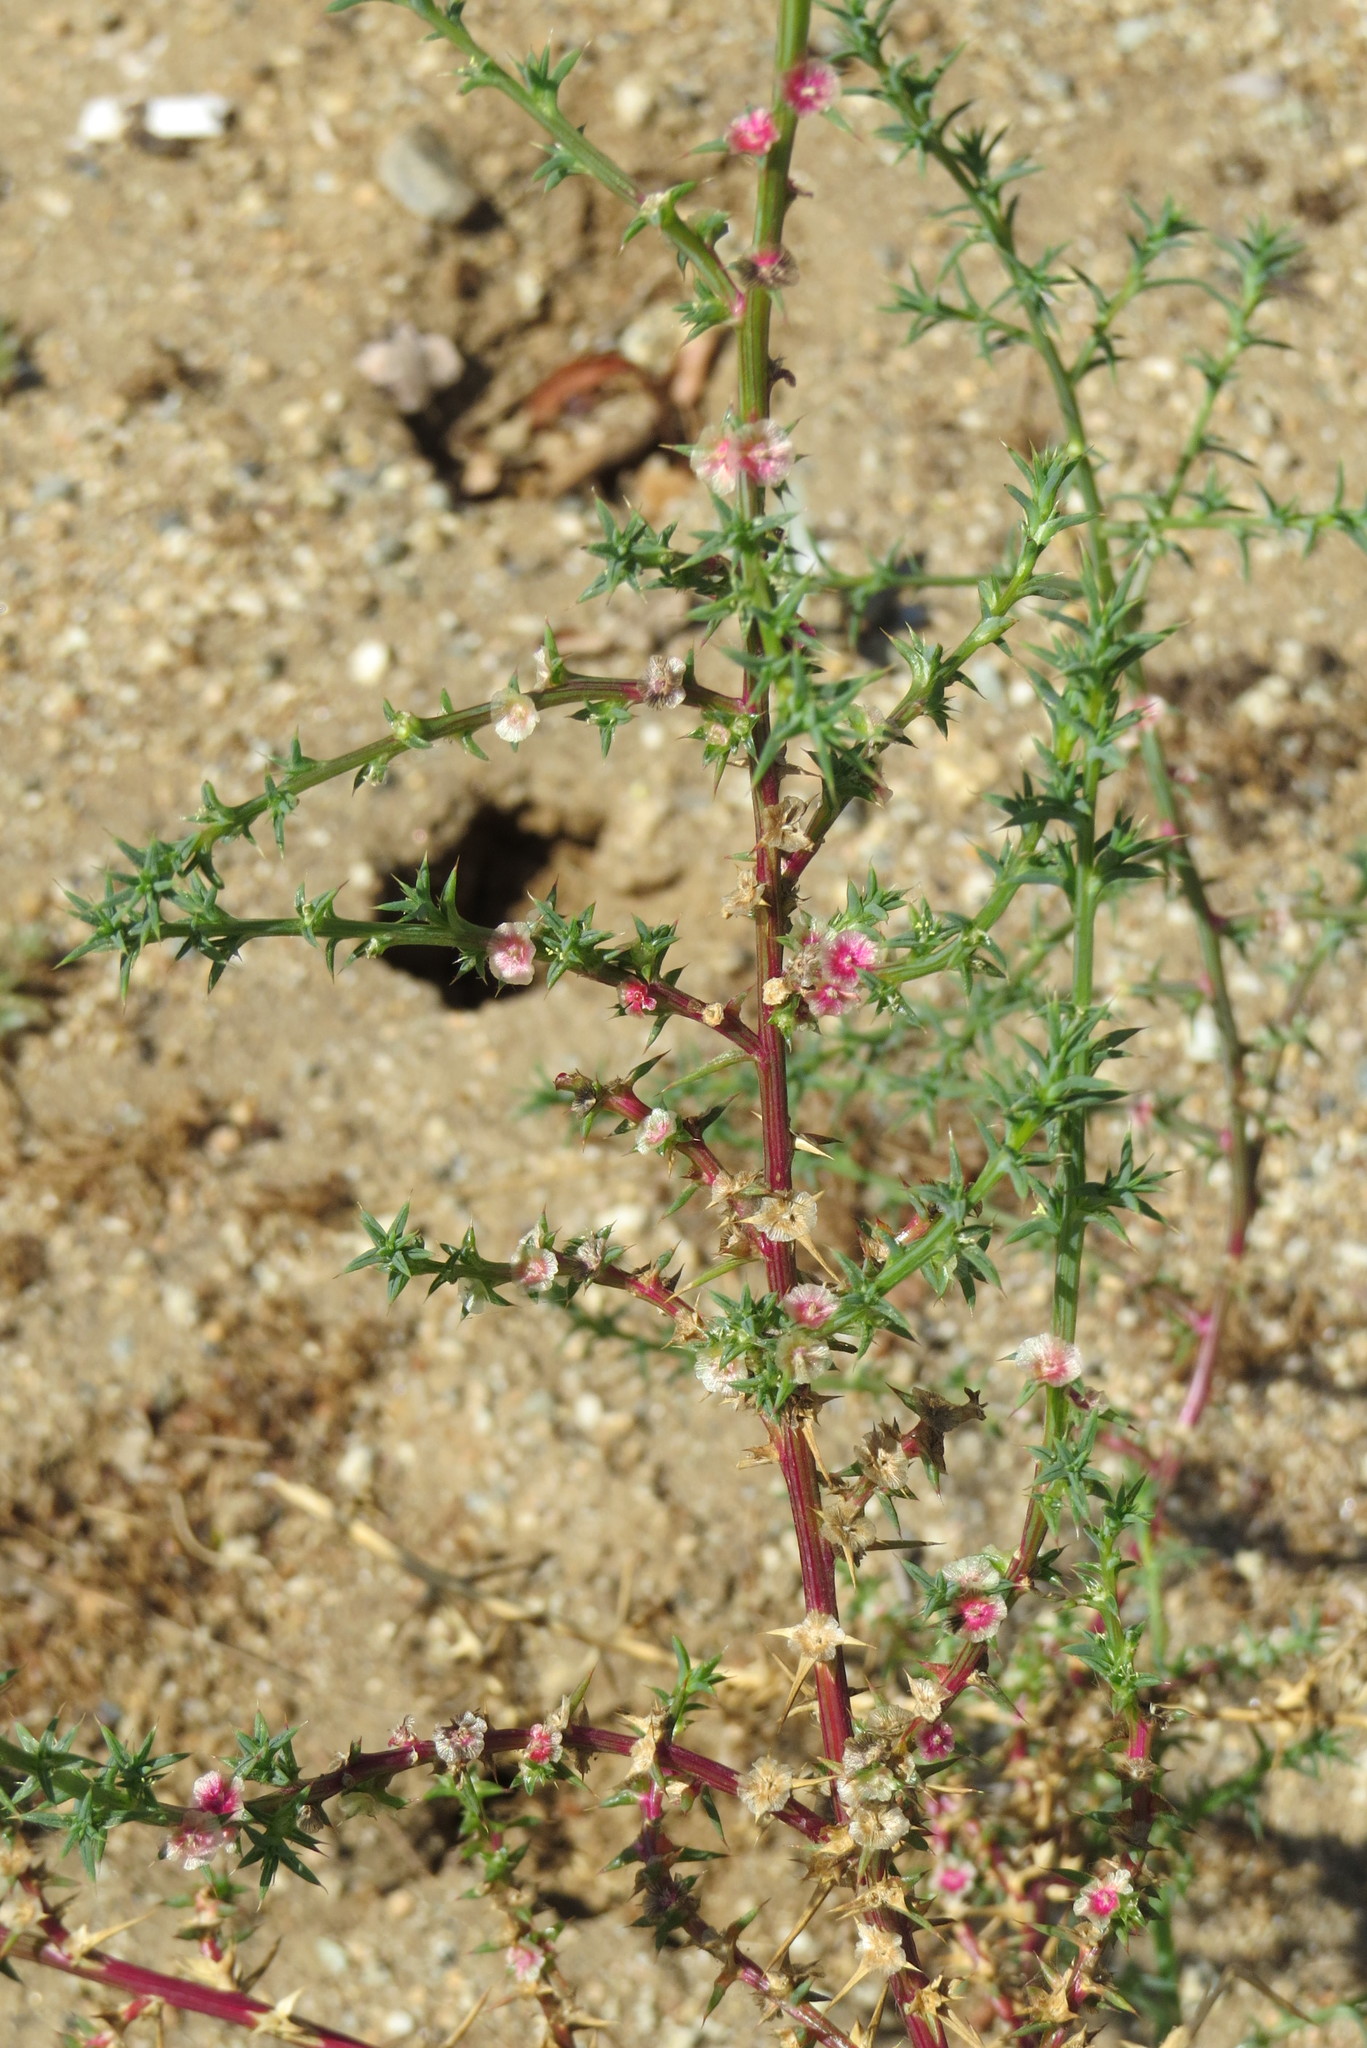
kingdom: Plantae
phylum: Tracheophyta
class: Magnoliopsida
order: Caryophyllales
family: Amaranthaceae
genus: Salsola
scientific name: Salsola australis
